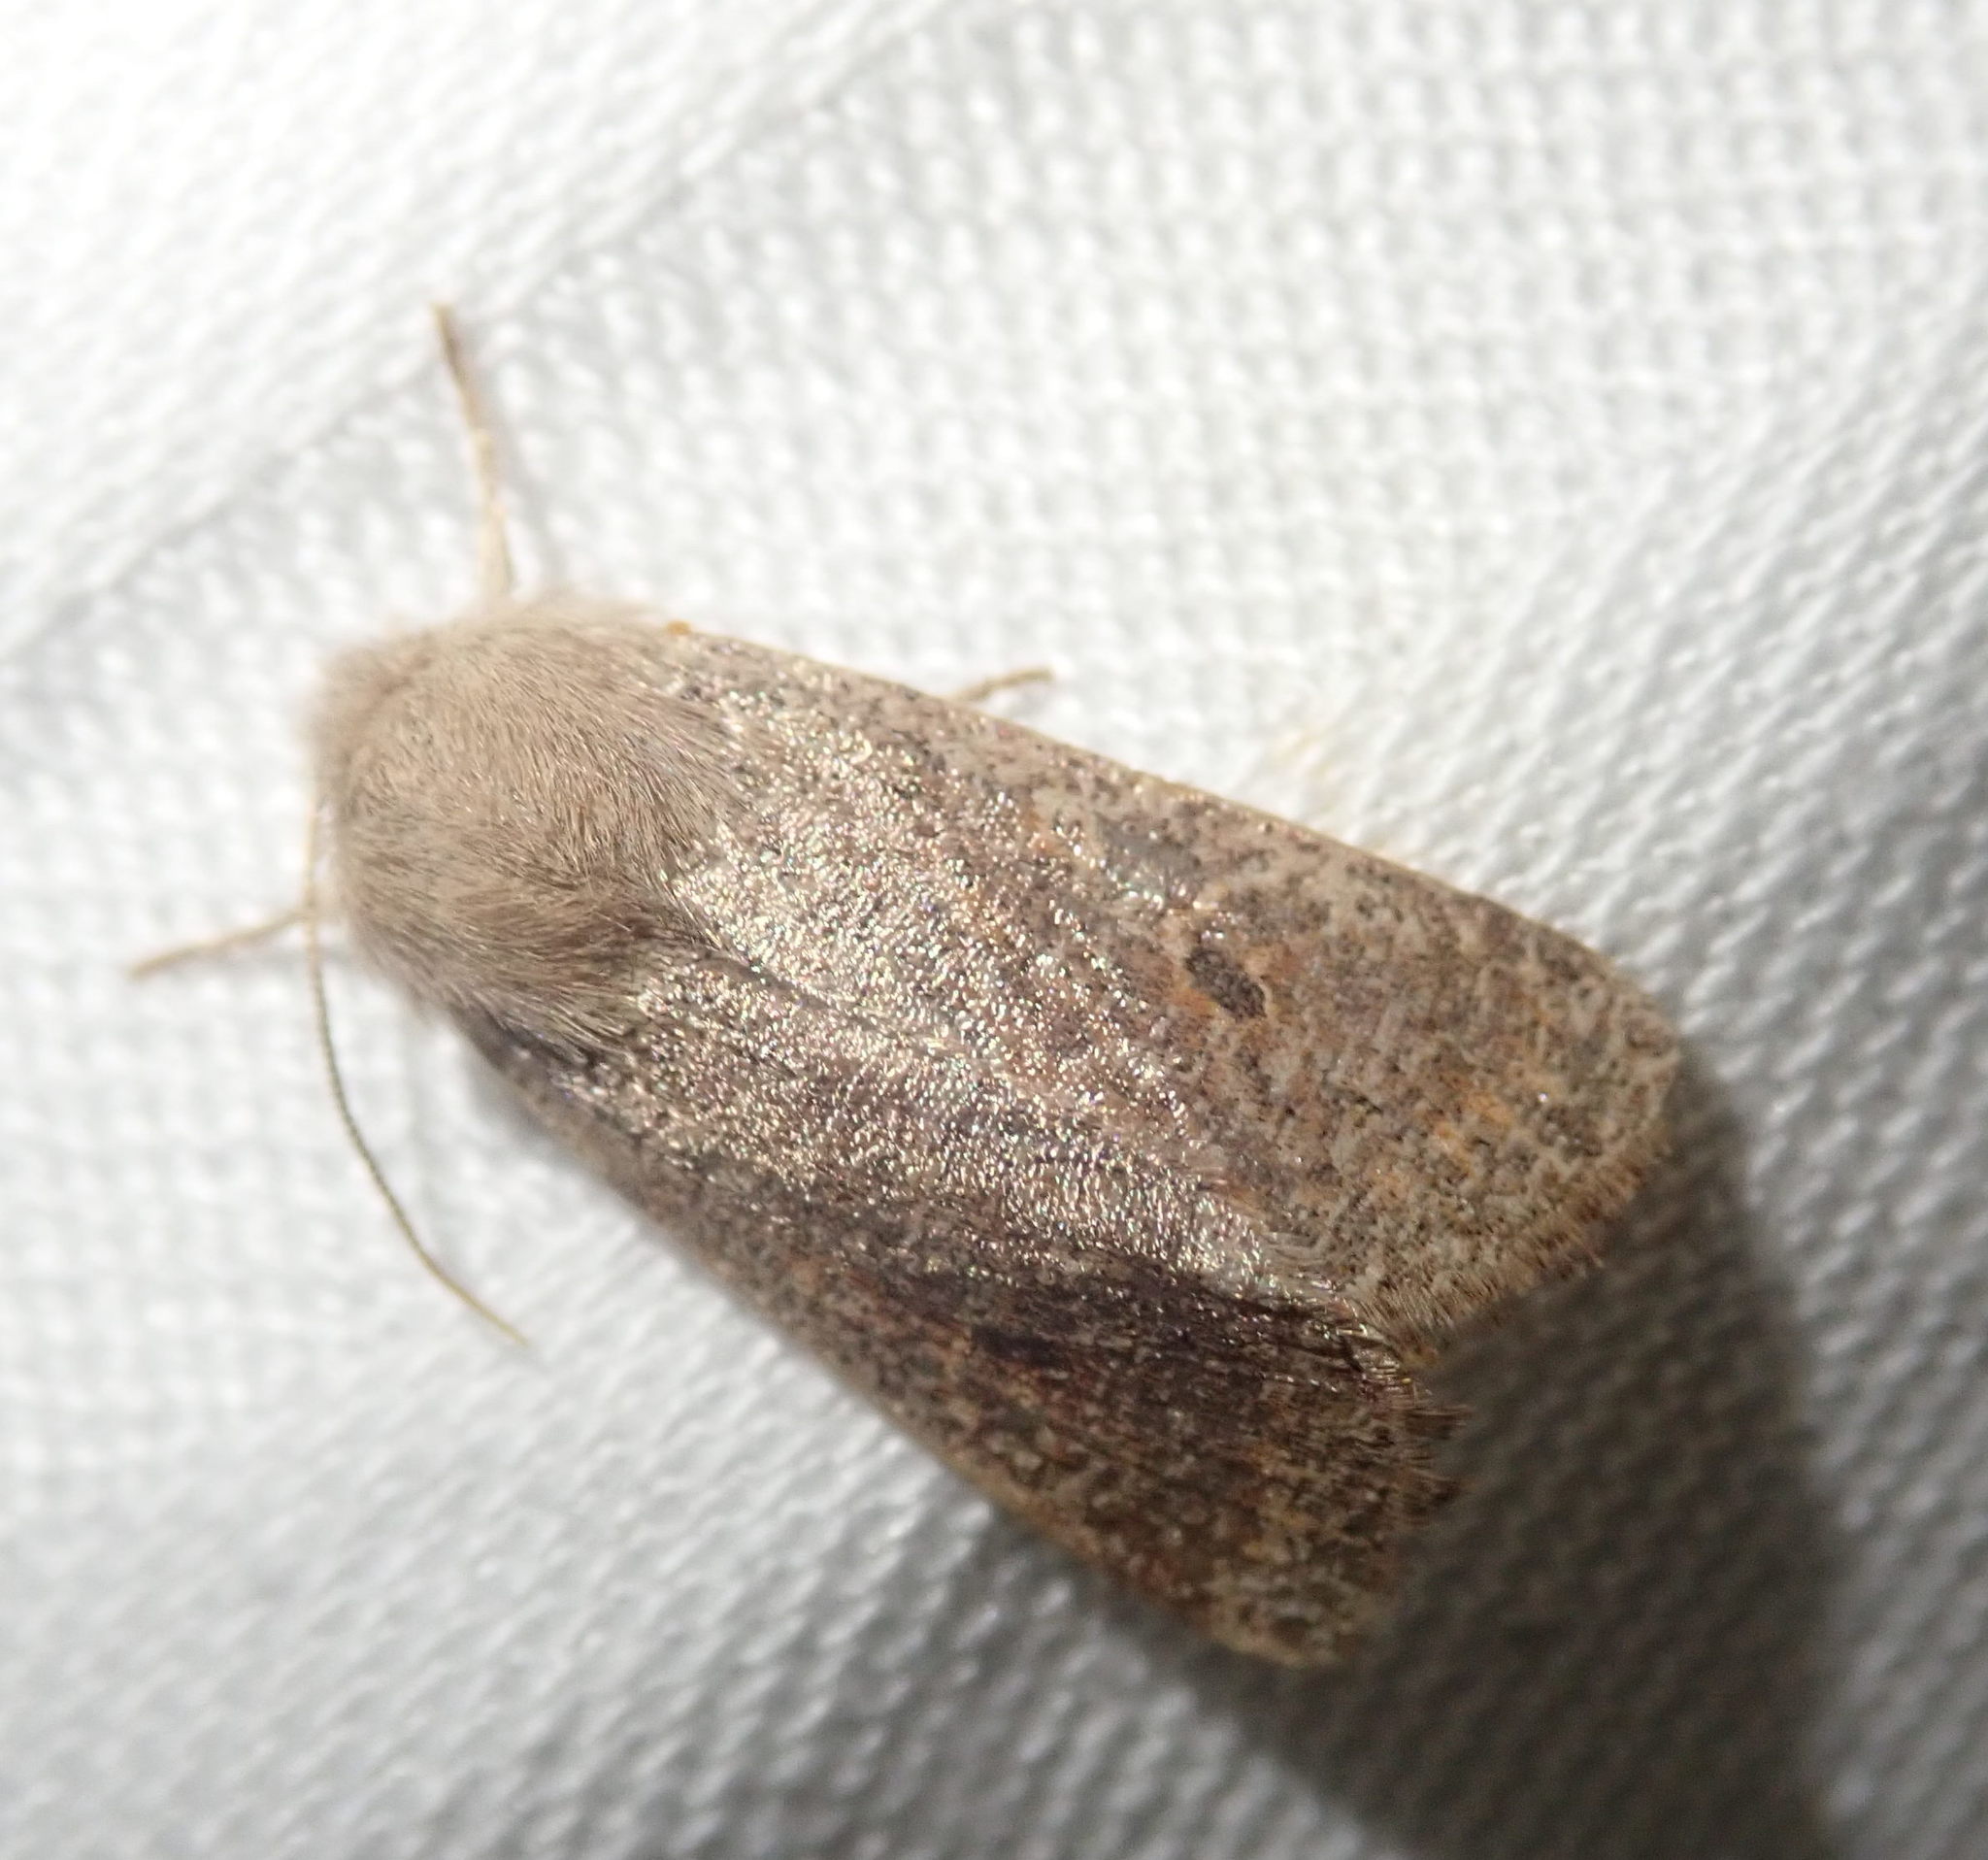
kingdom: Animalia
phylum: Arthropoda
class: Insecta
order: Lepidoptera
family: Noctuidae
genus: Orthosia
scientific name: Orthosia cruda
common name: Small quaker
